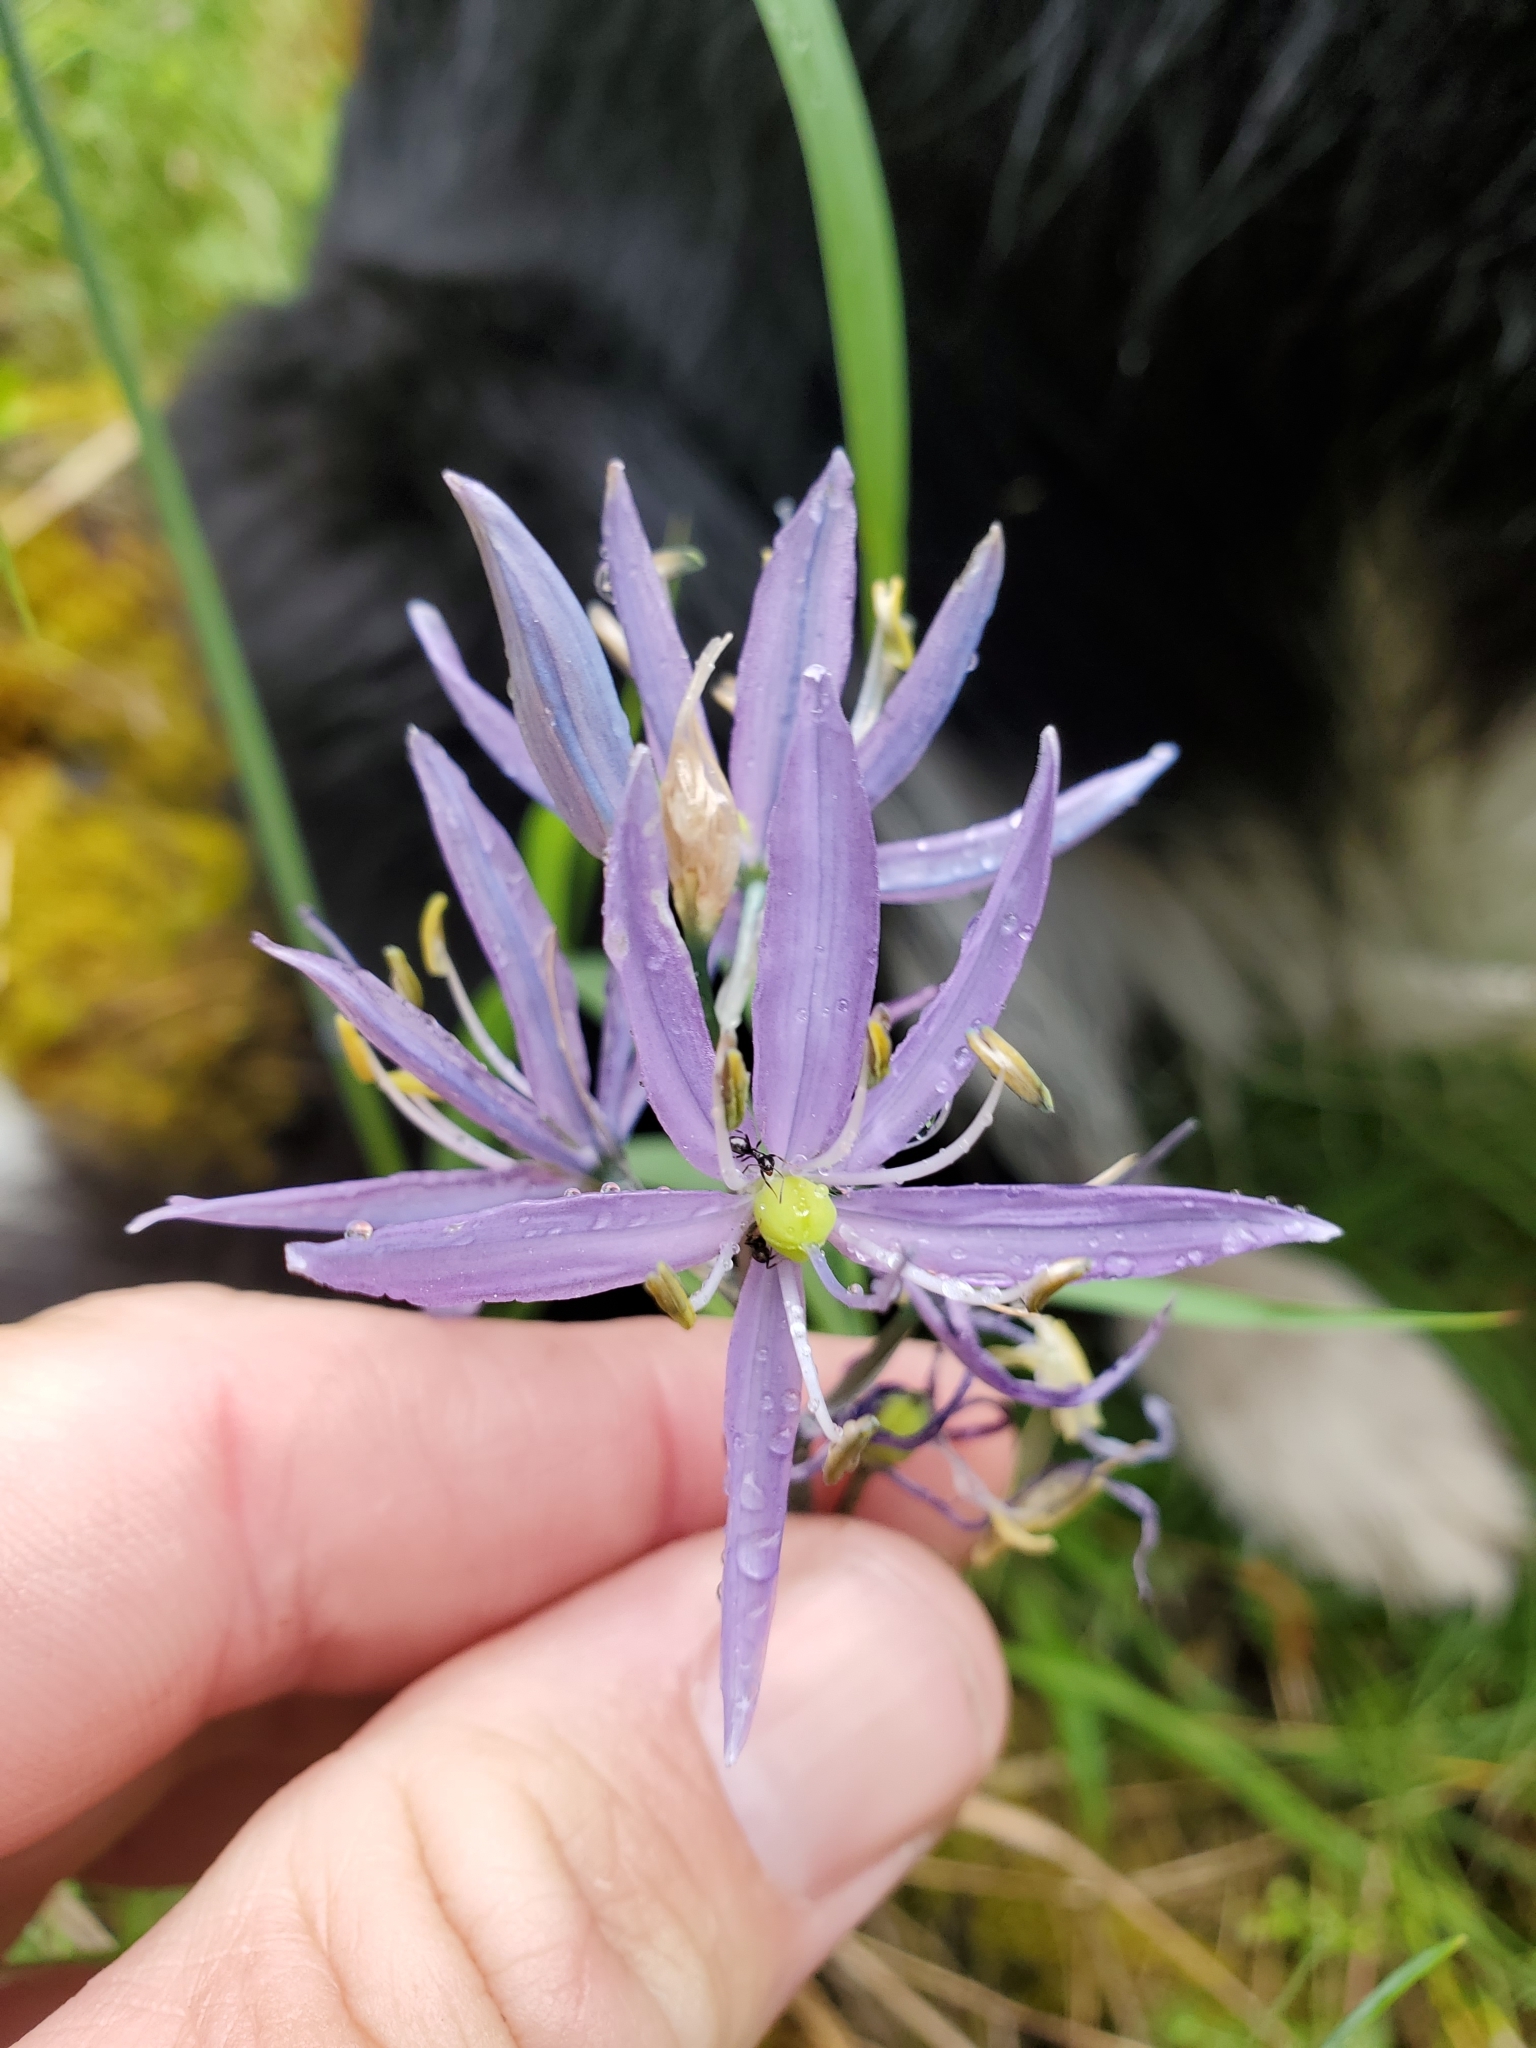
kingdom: Plantae
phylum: Tracheophyta
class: Liliopsida
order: Asparagales
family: Asparagaceae
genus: Camassia
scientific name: Camassia quamash
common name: Common camas
